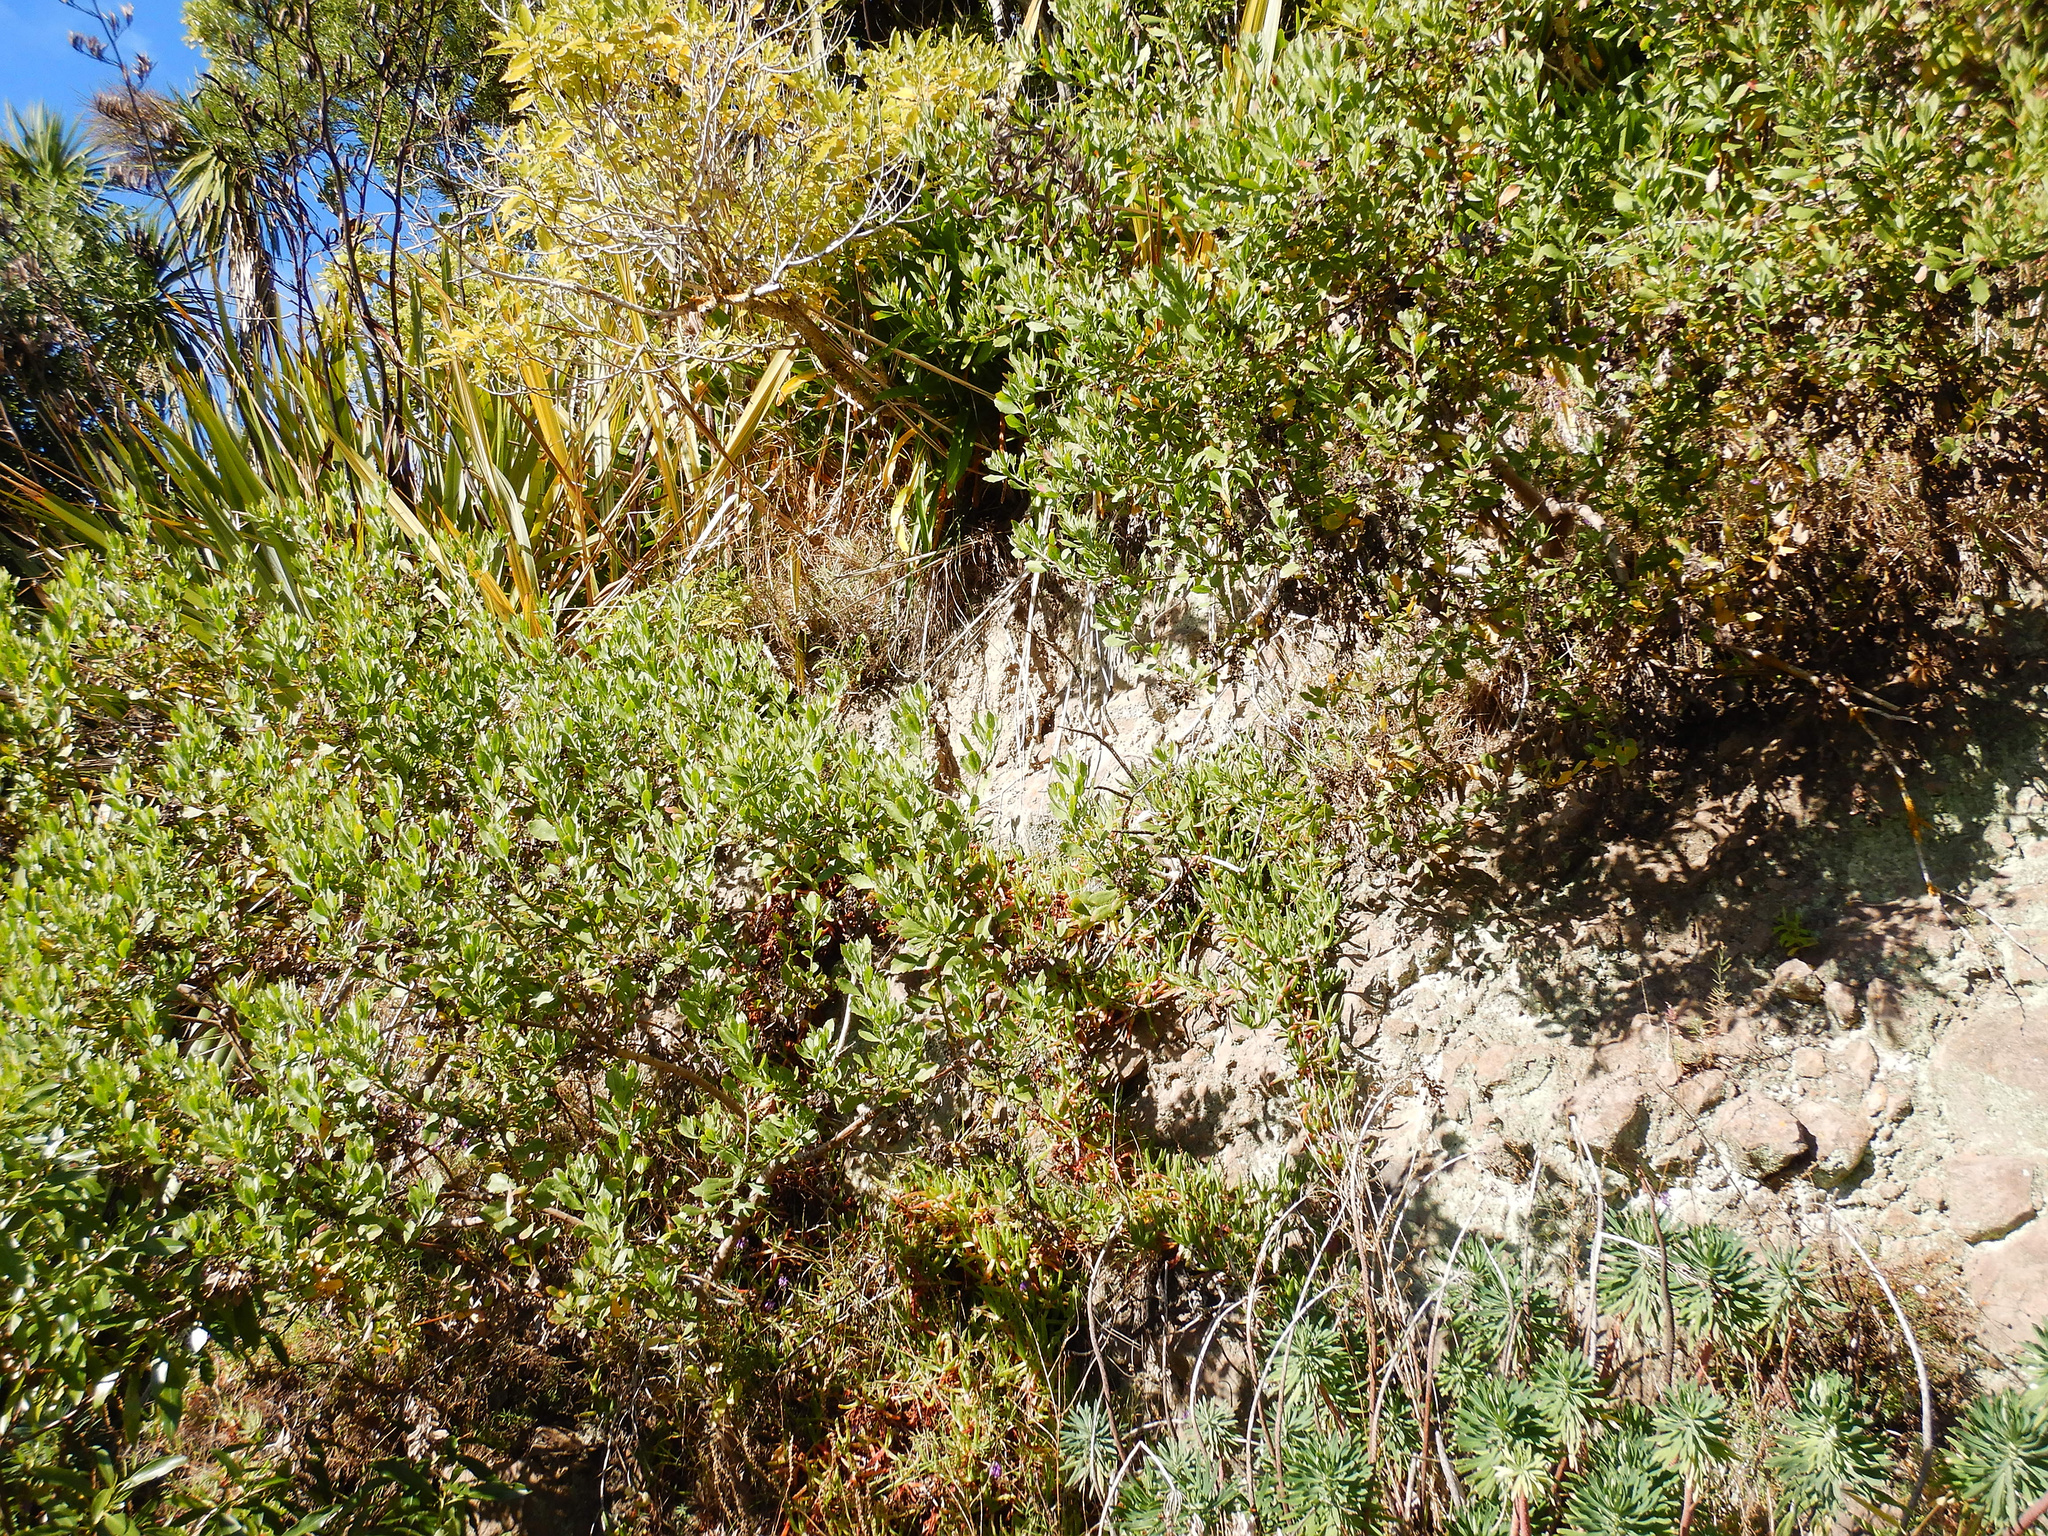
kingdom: Plantae
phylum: Tracheophyta
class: Magnoliopsida
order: Asterales
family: Asteraceae
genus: Osteospermum
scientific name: Osteospermum moniliferum
